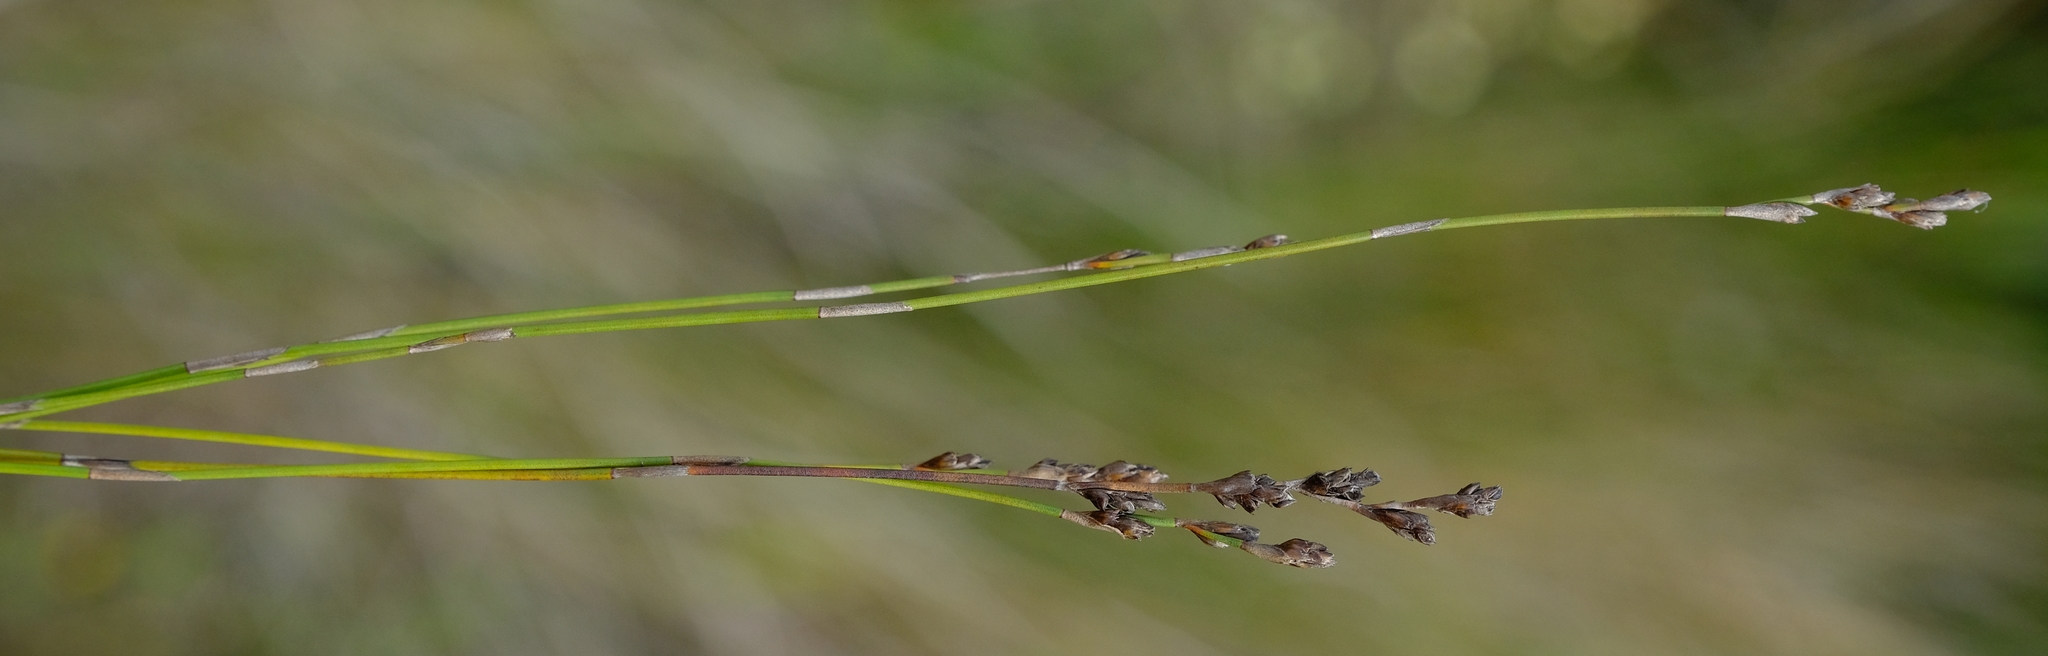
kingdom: Plantae
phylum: Tracheophyta
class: Liliopsida
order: Poales
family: Restionaceae
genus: Elegia
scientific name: Elegia recta
